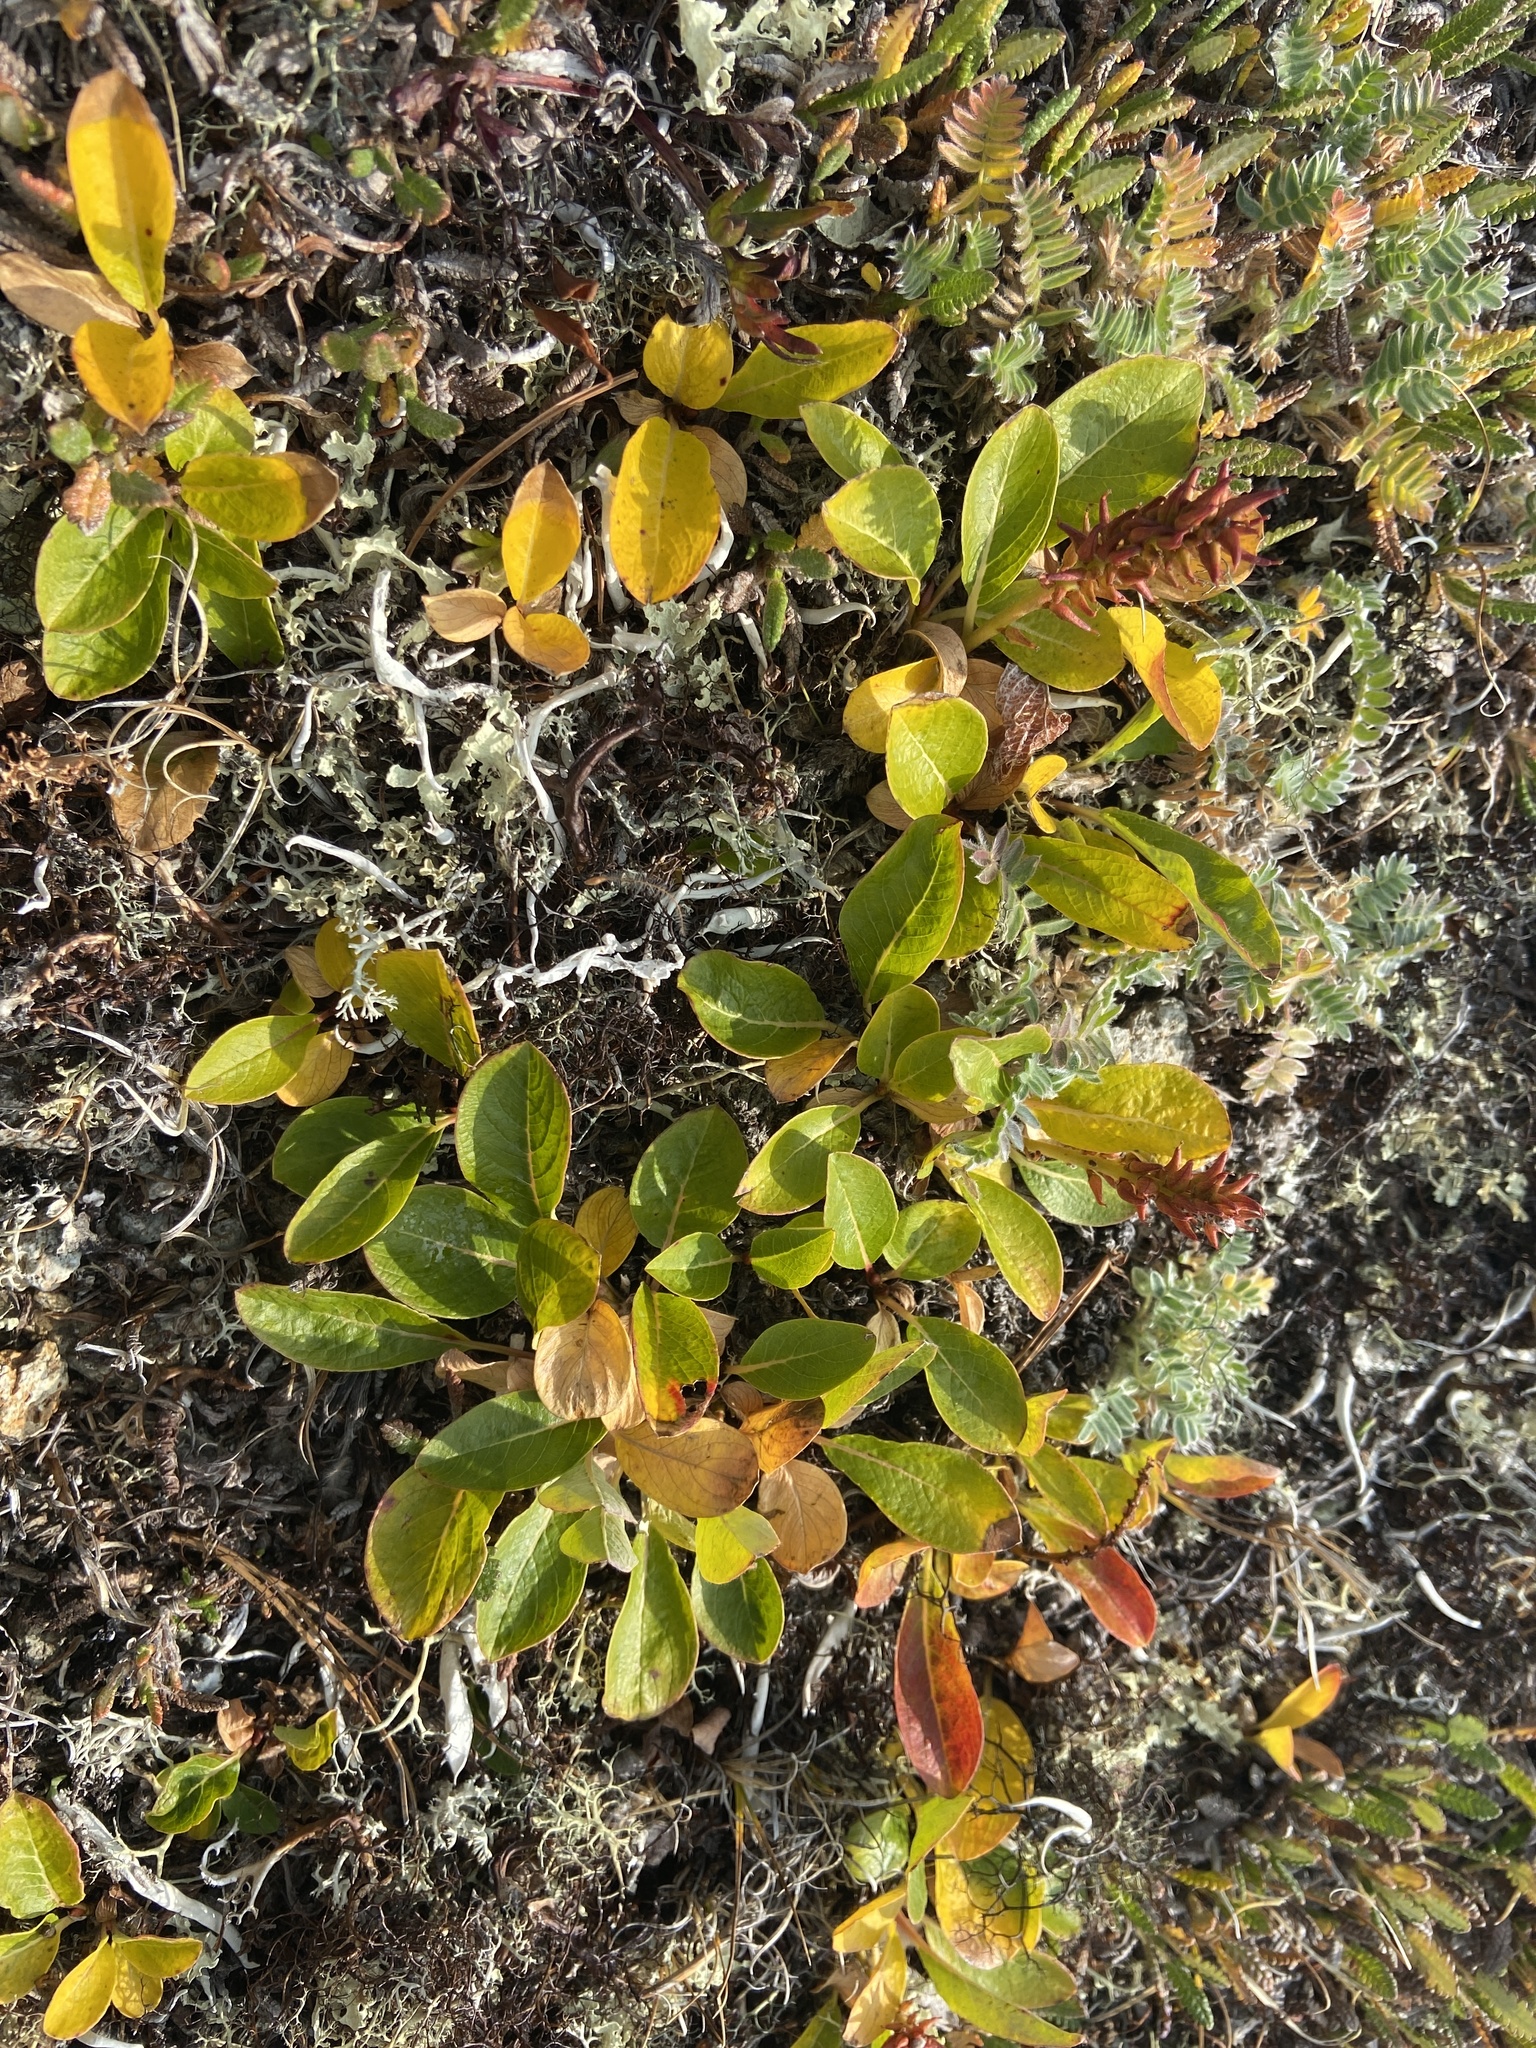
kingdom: Plantae
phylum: Tracheophyta
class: Magnoliopsida
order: Malpighiales
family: Salicaceae
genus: Salix
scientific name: Salix pulchra
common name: Diamond-leaved willow
